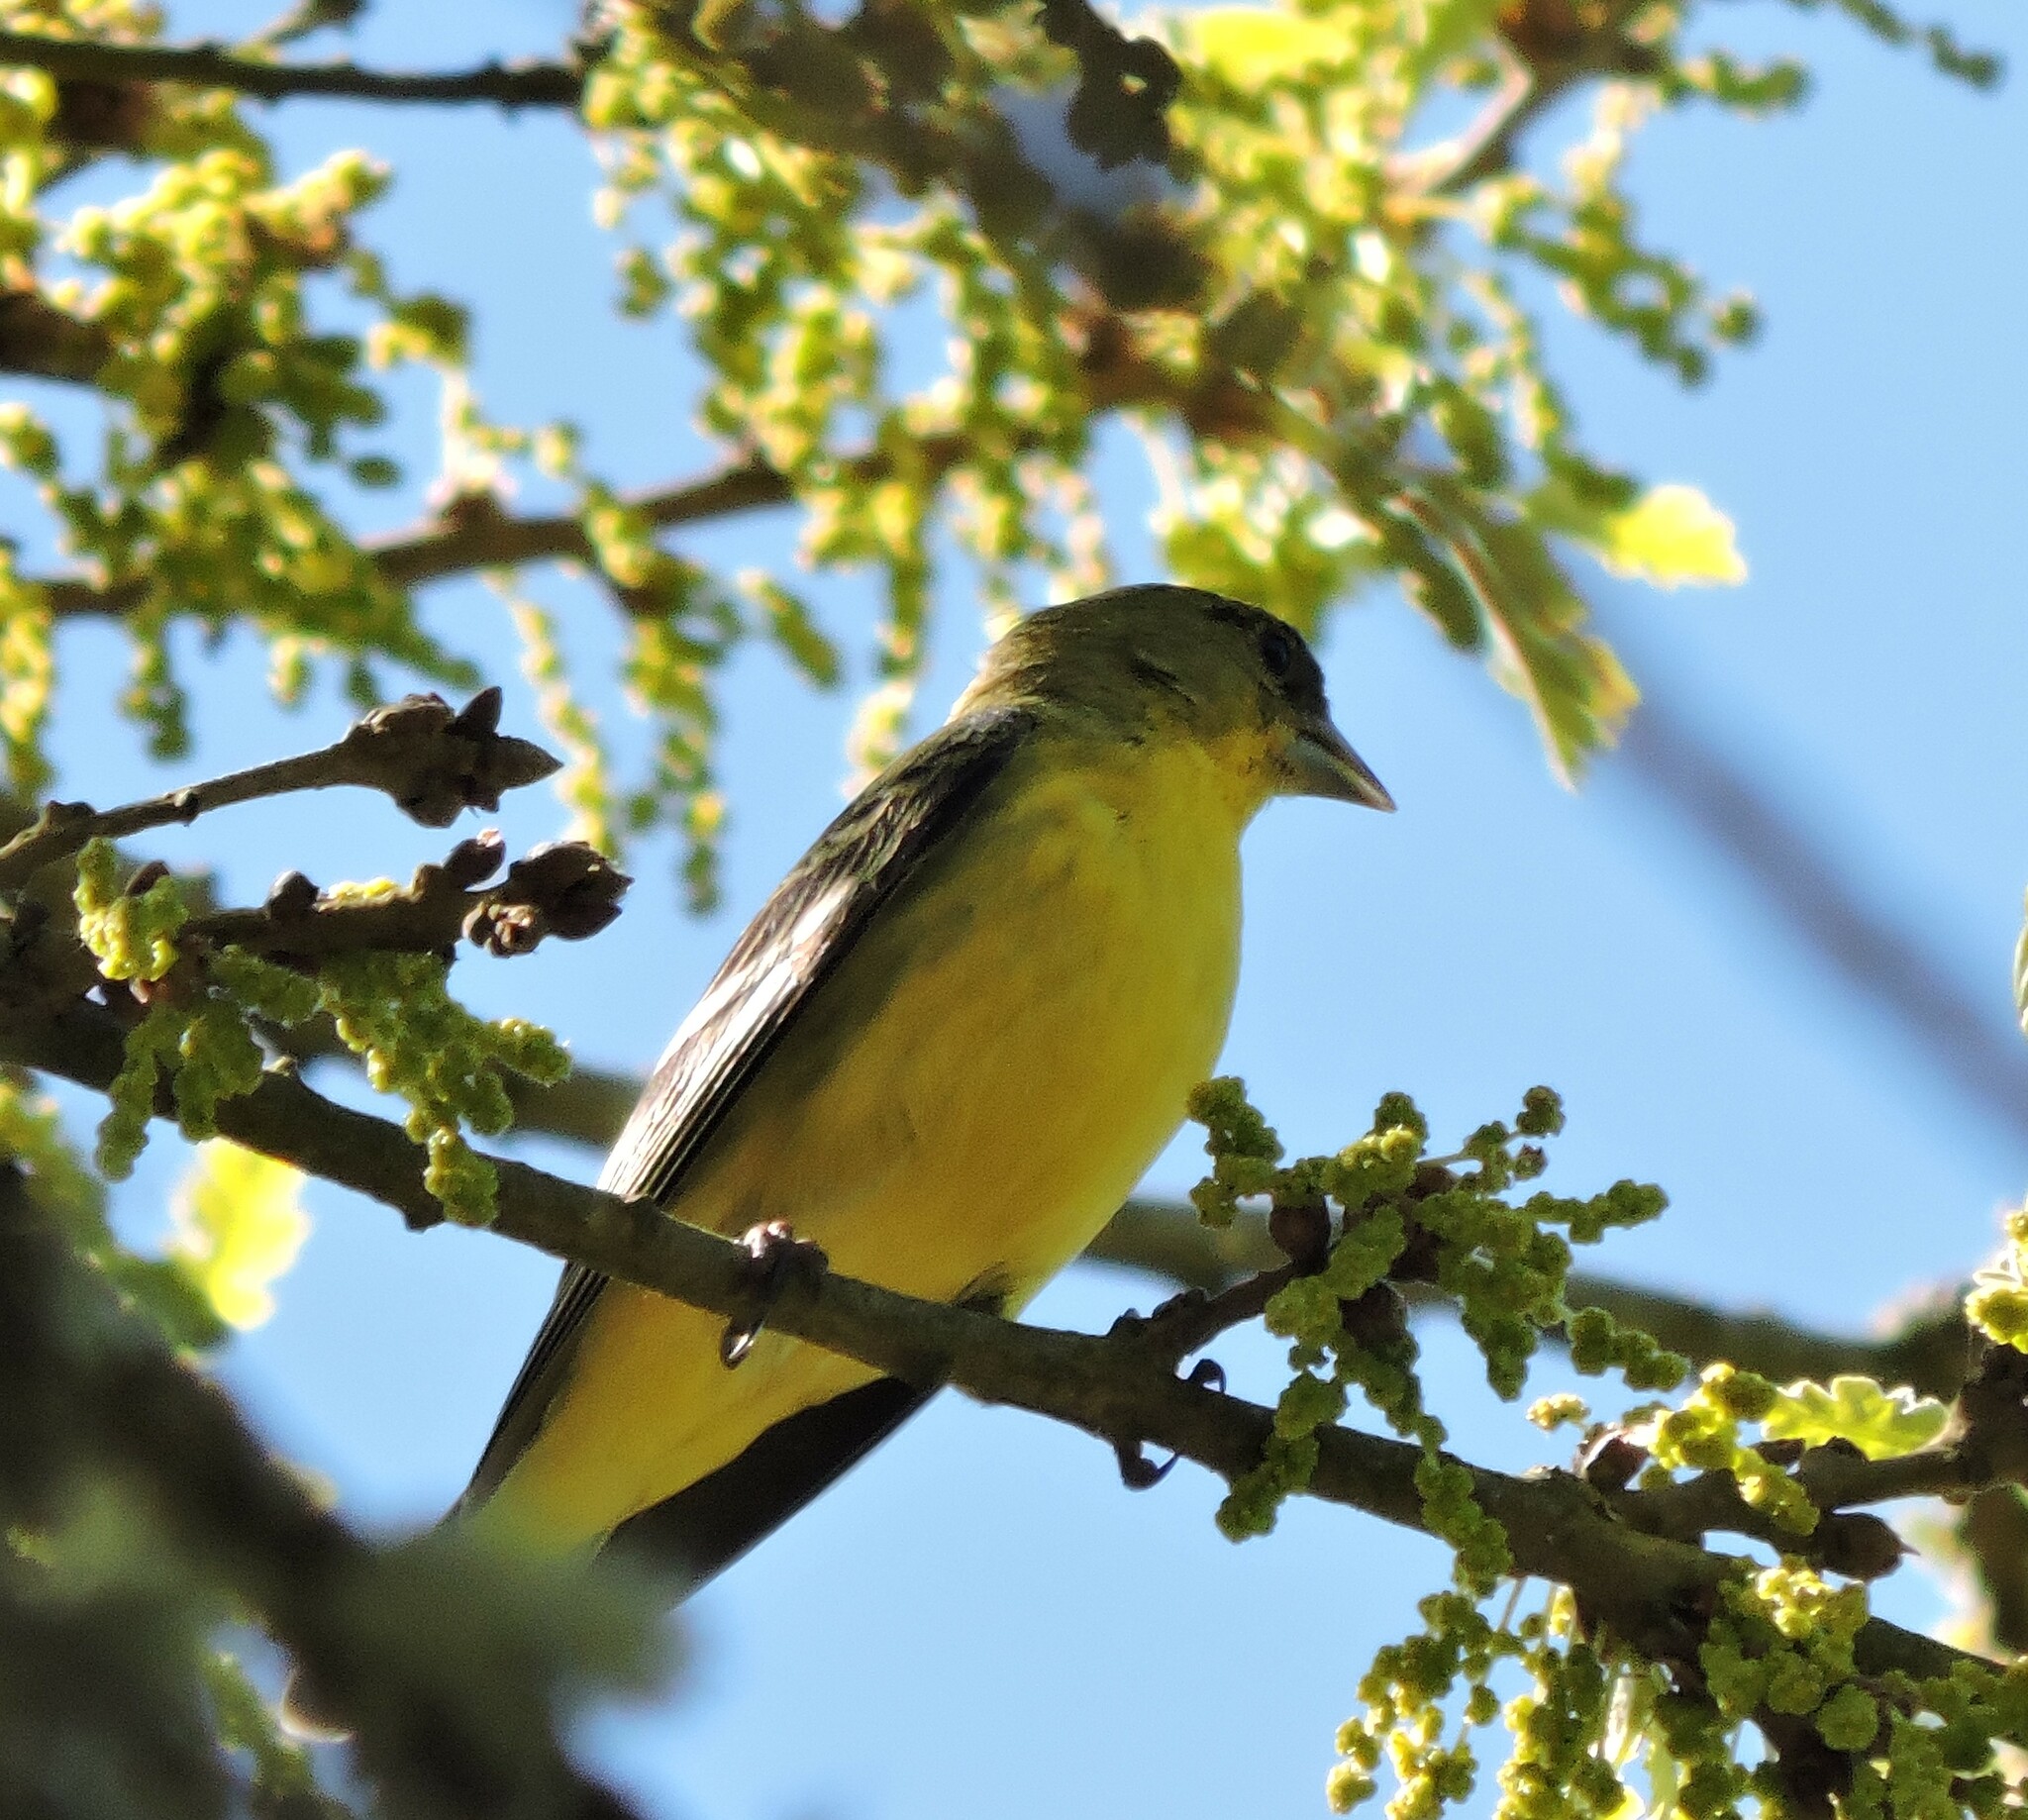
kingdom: Animalia
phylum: Chordata
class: Aves
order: Passeriformes
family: Fringillidae
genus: Spinus
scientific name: Spinus psaltria
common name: Lesser goldfinch
